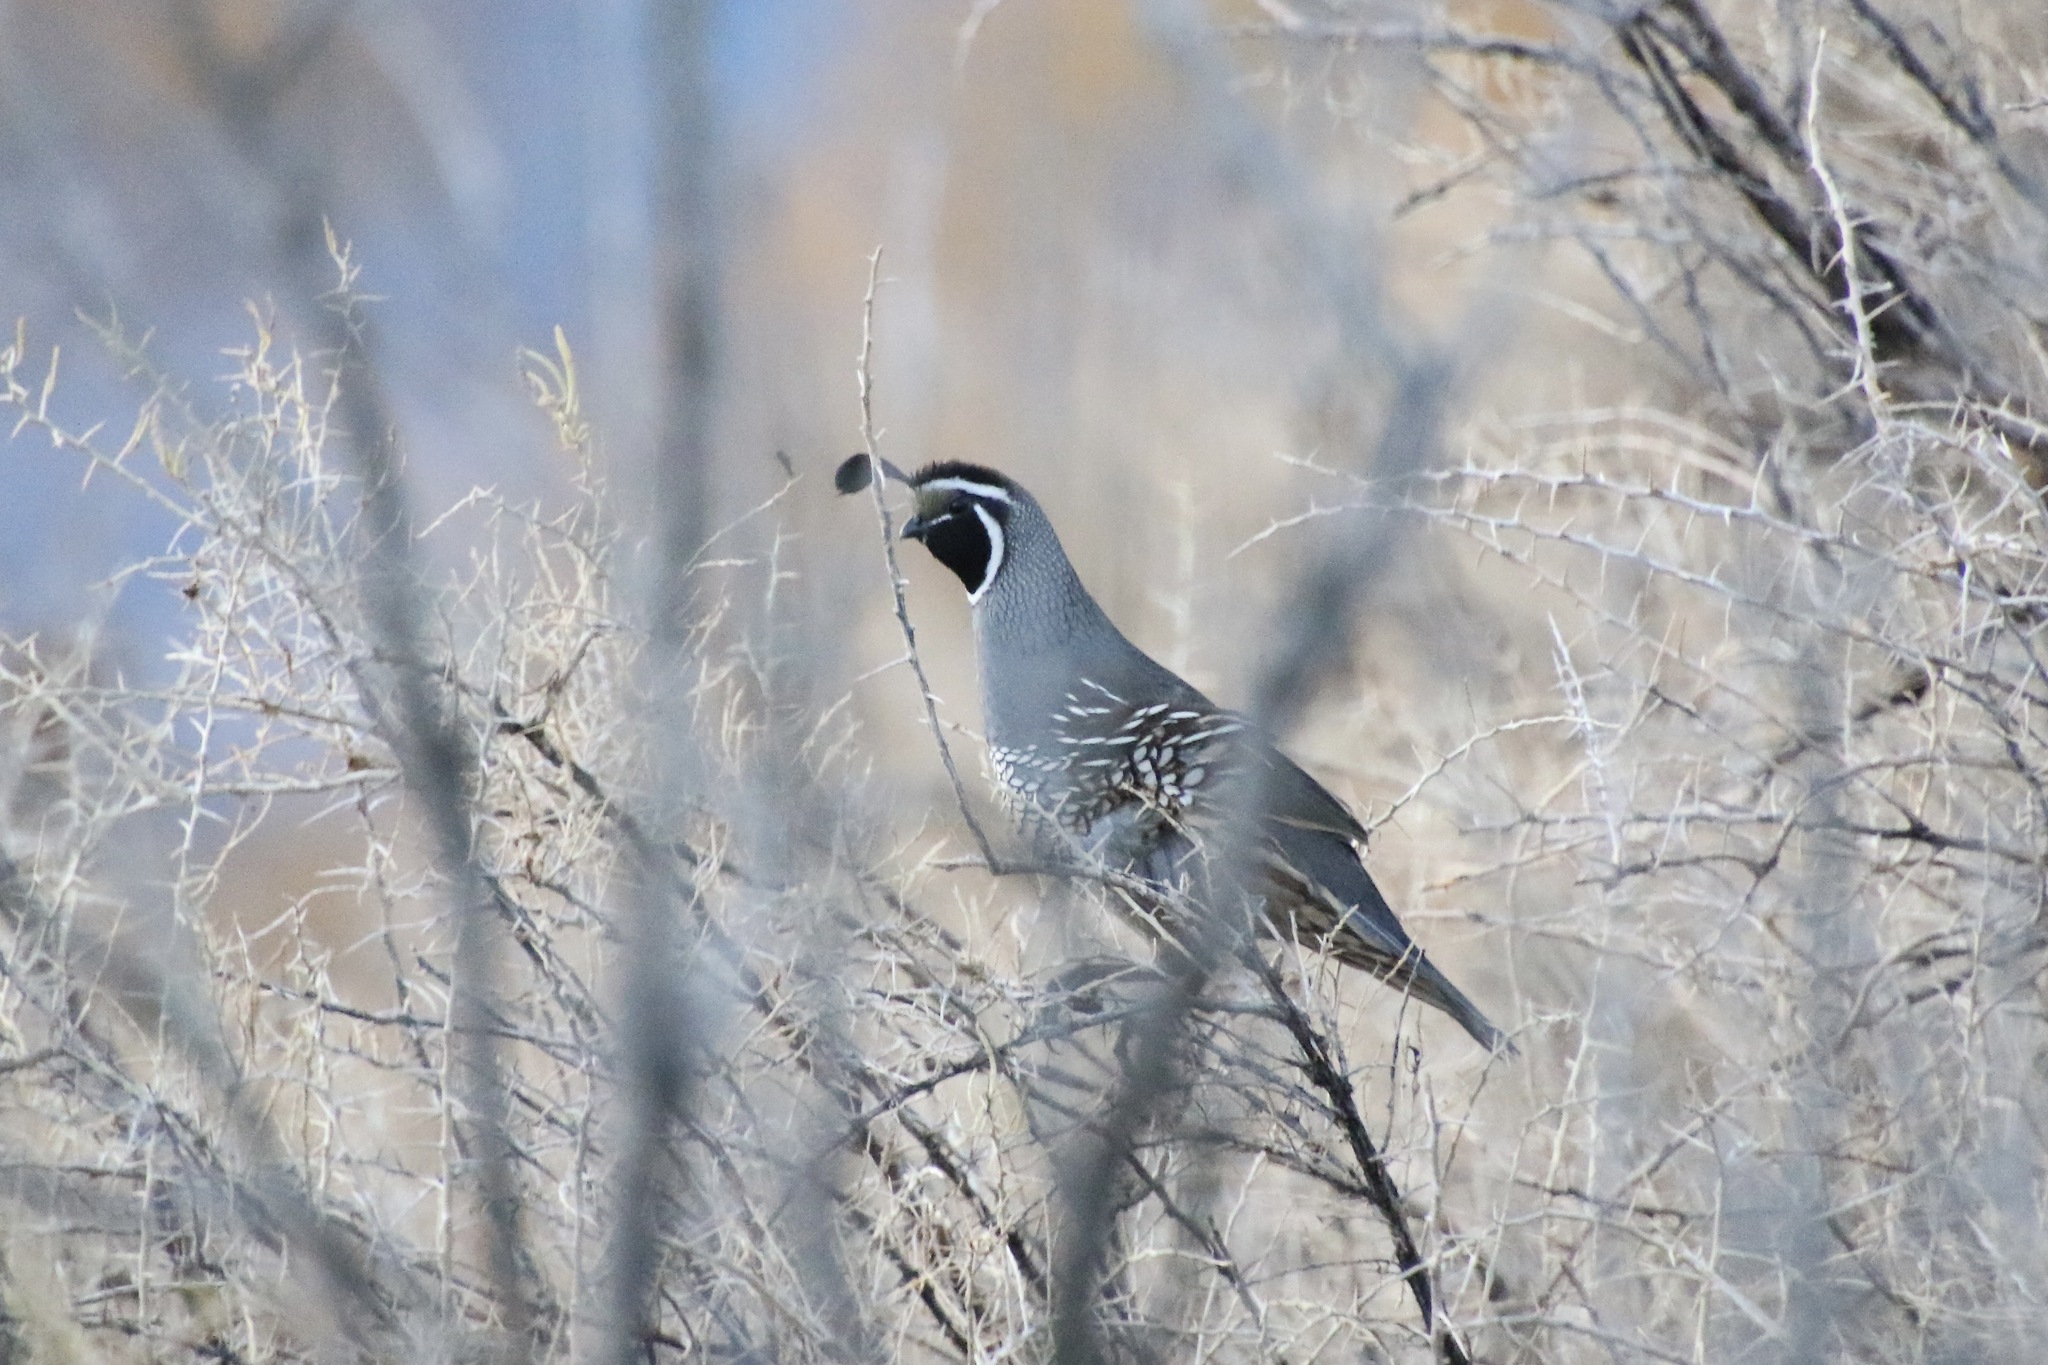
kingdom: Animalia
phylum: Chordata
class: Aves
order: Galliformes
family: Odontophoridae
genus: Callipepla
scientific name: Callipepla californica
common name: California quail
